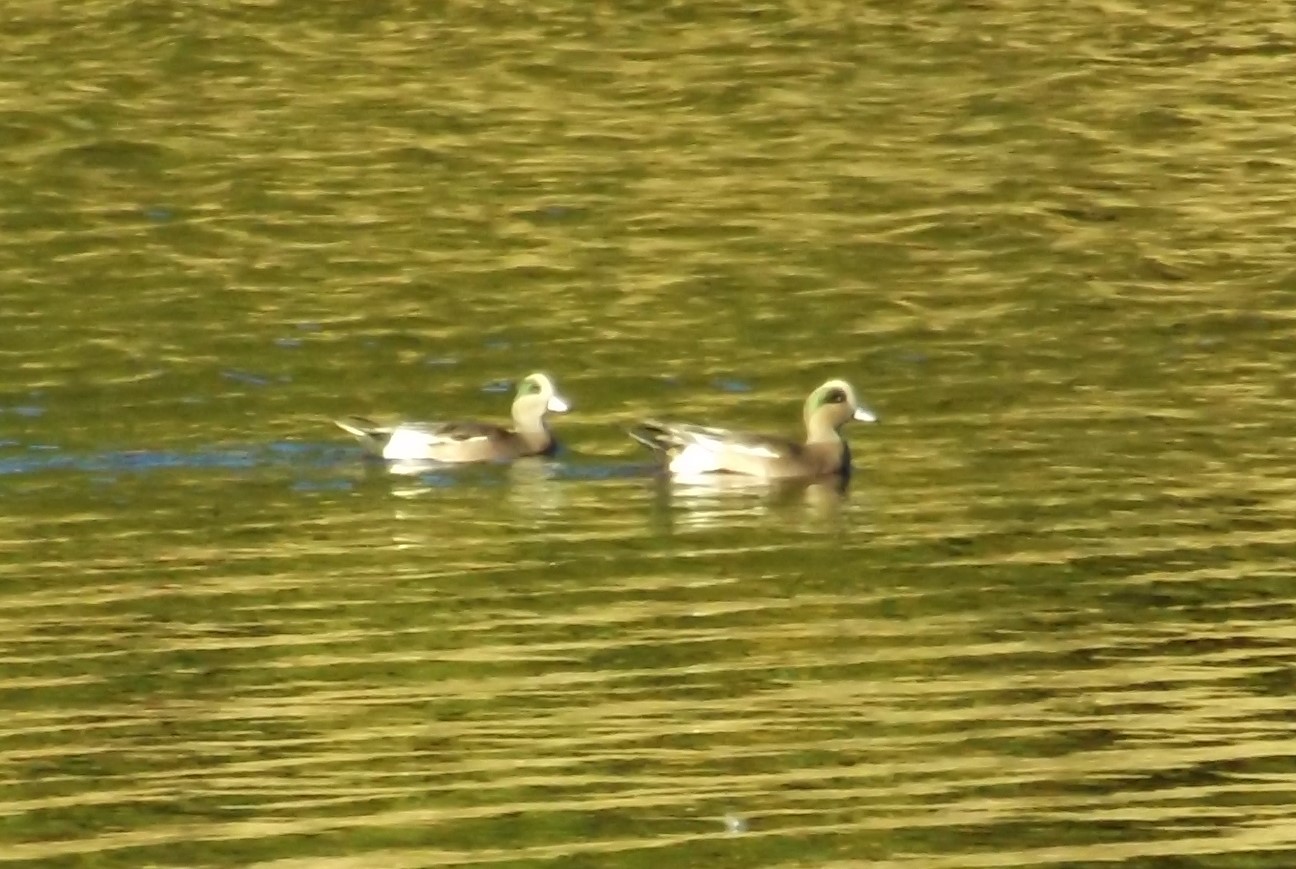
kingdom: Animalia
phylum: Chordata
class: Aves
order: Anseriformes
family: Anatidae
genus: Mareca
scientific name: Mareca americana
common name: American wigeon
